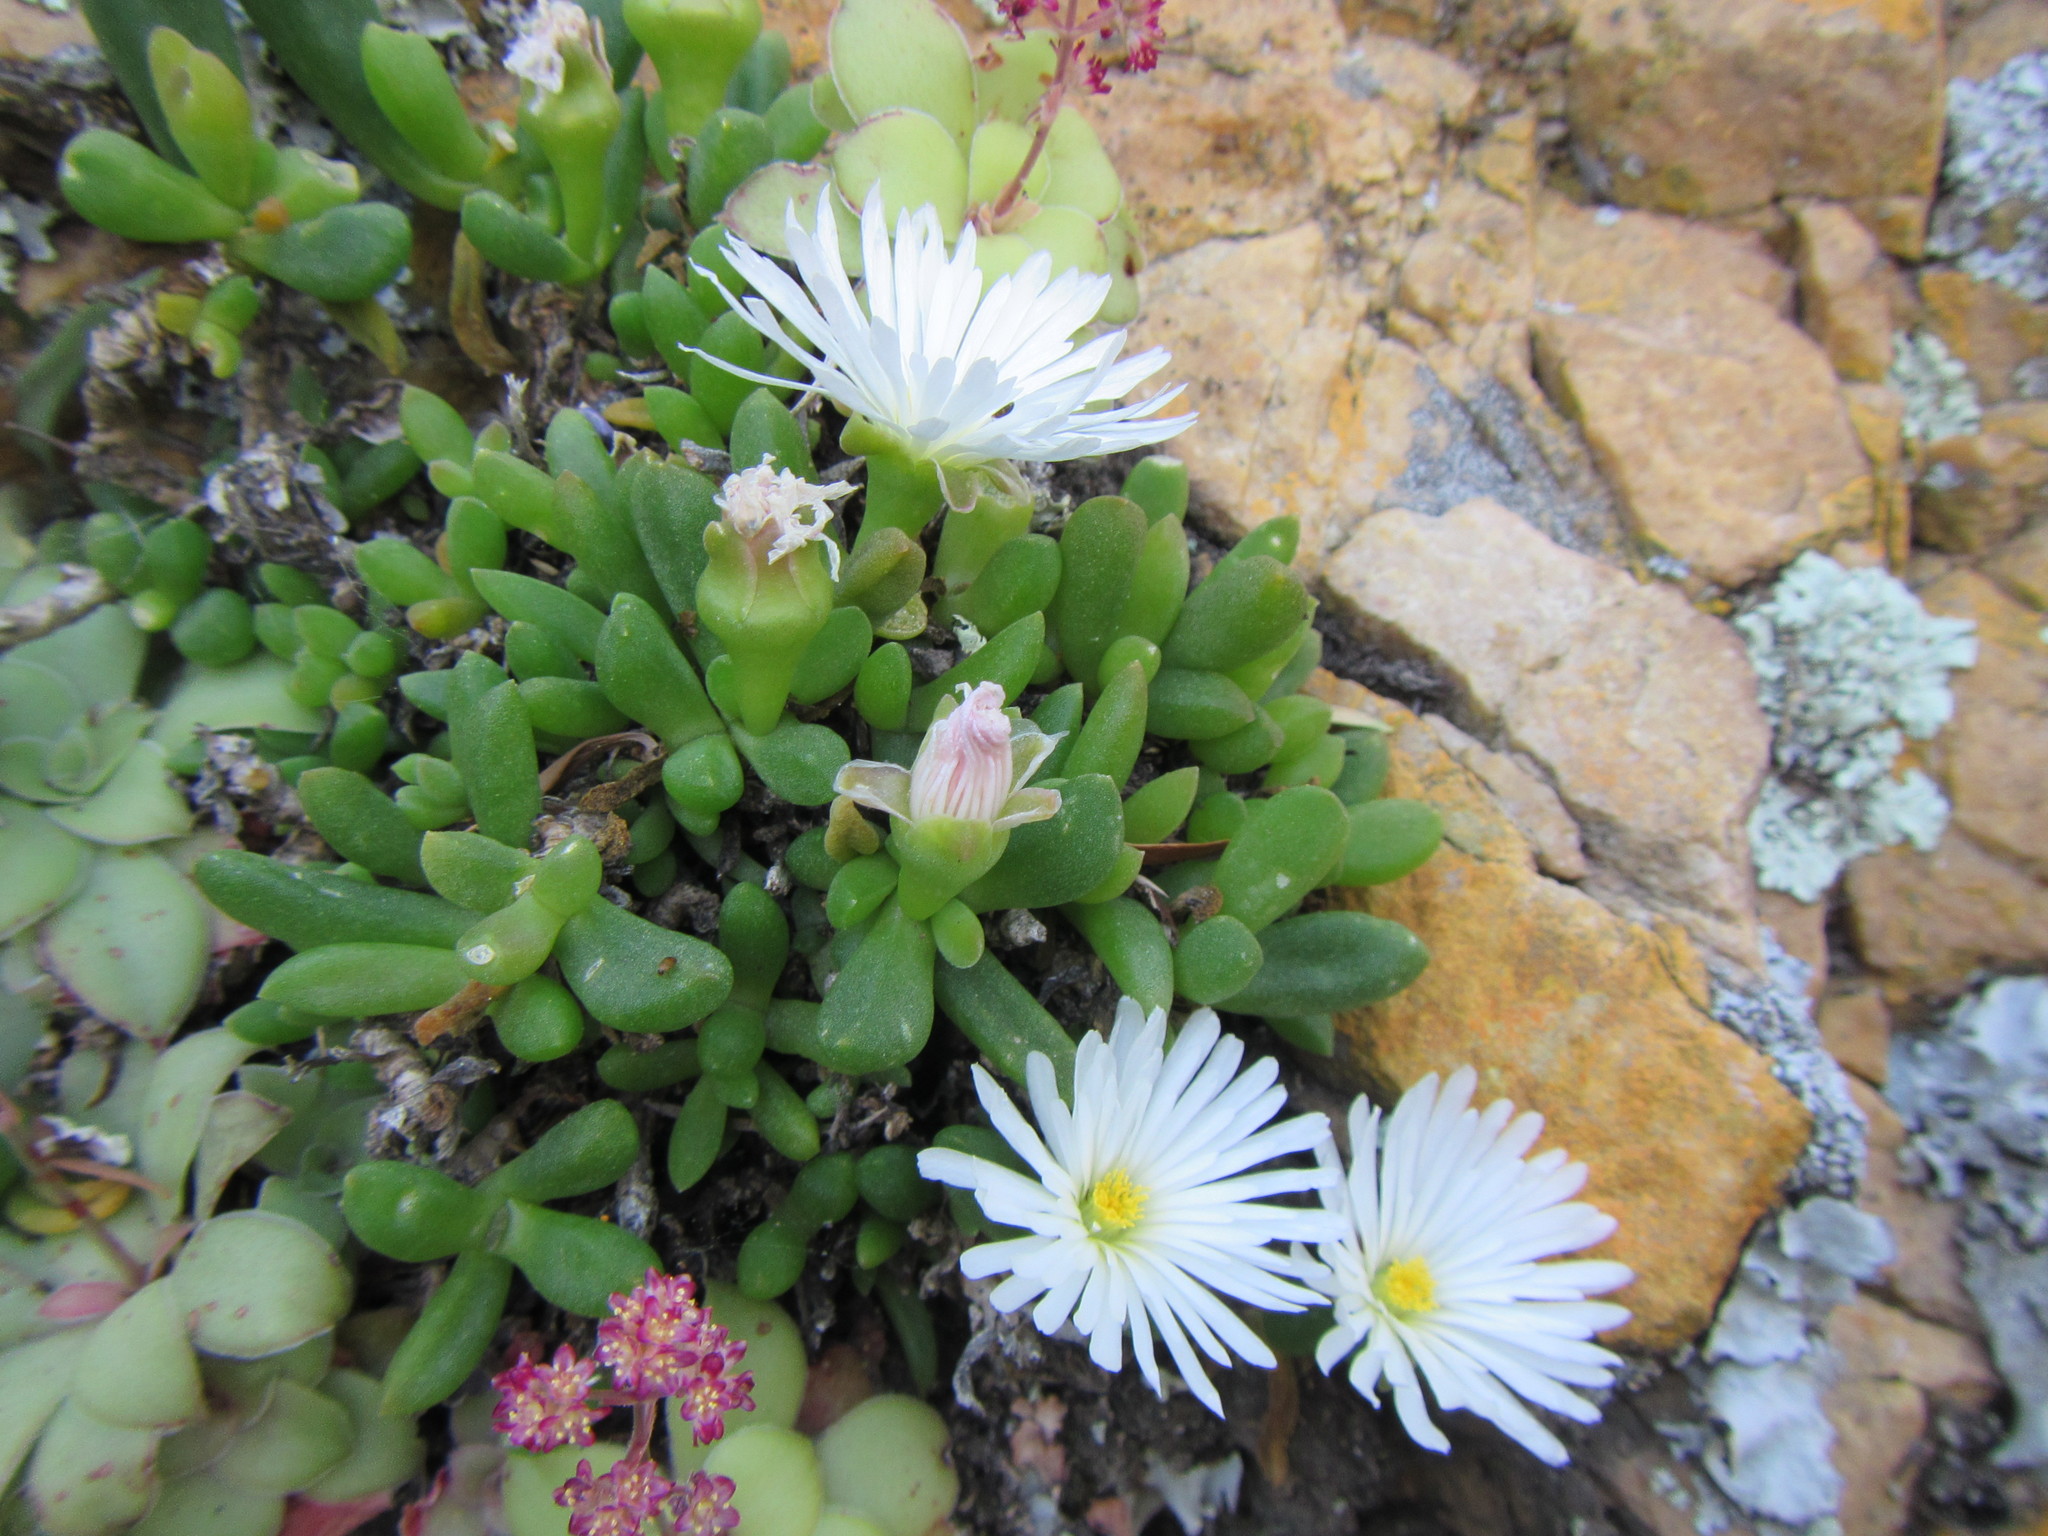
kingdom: Plantae
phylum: Tracheophyta
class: Magnoliopsida
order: Caryophyllales
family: Aizoaceae
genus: Delosperma
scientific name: Delosperma esterhuyseniae
